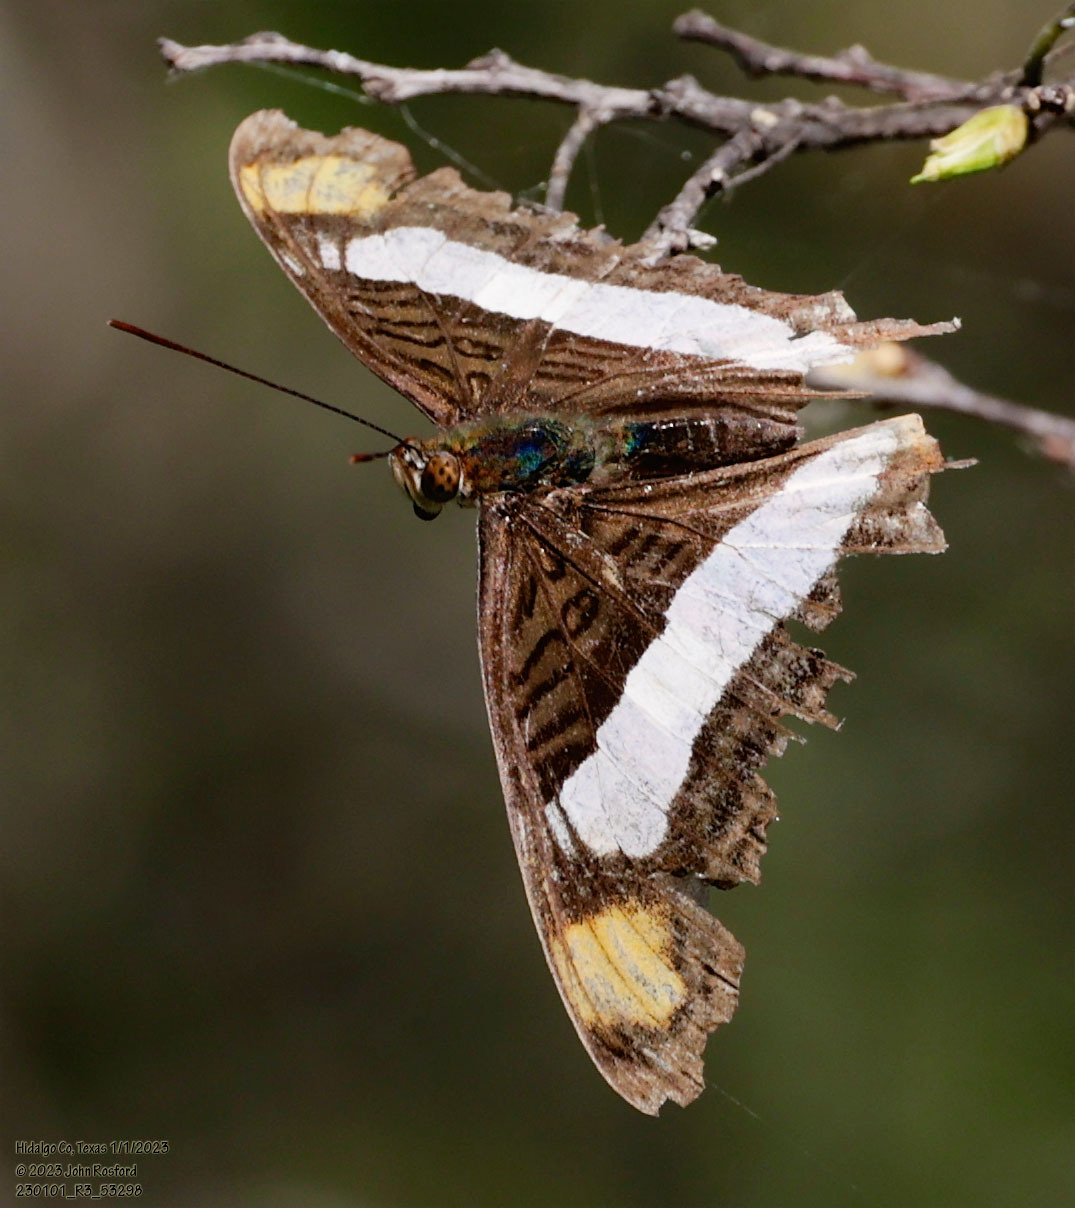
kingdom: Animalia
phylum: Arthropoda
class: Insecta
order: Lepidoptera
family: Nymphalidae
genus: Limenitis
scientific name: Limenitis Adelpha basiloides
